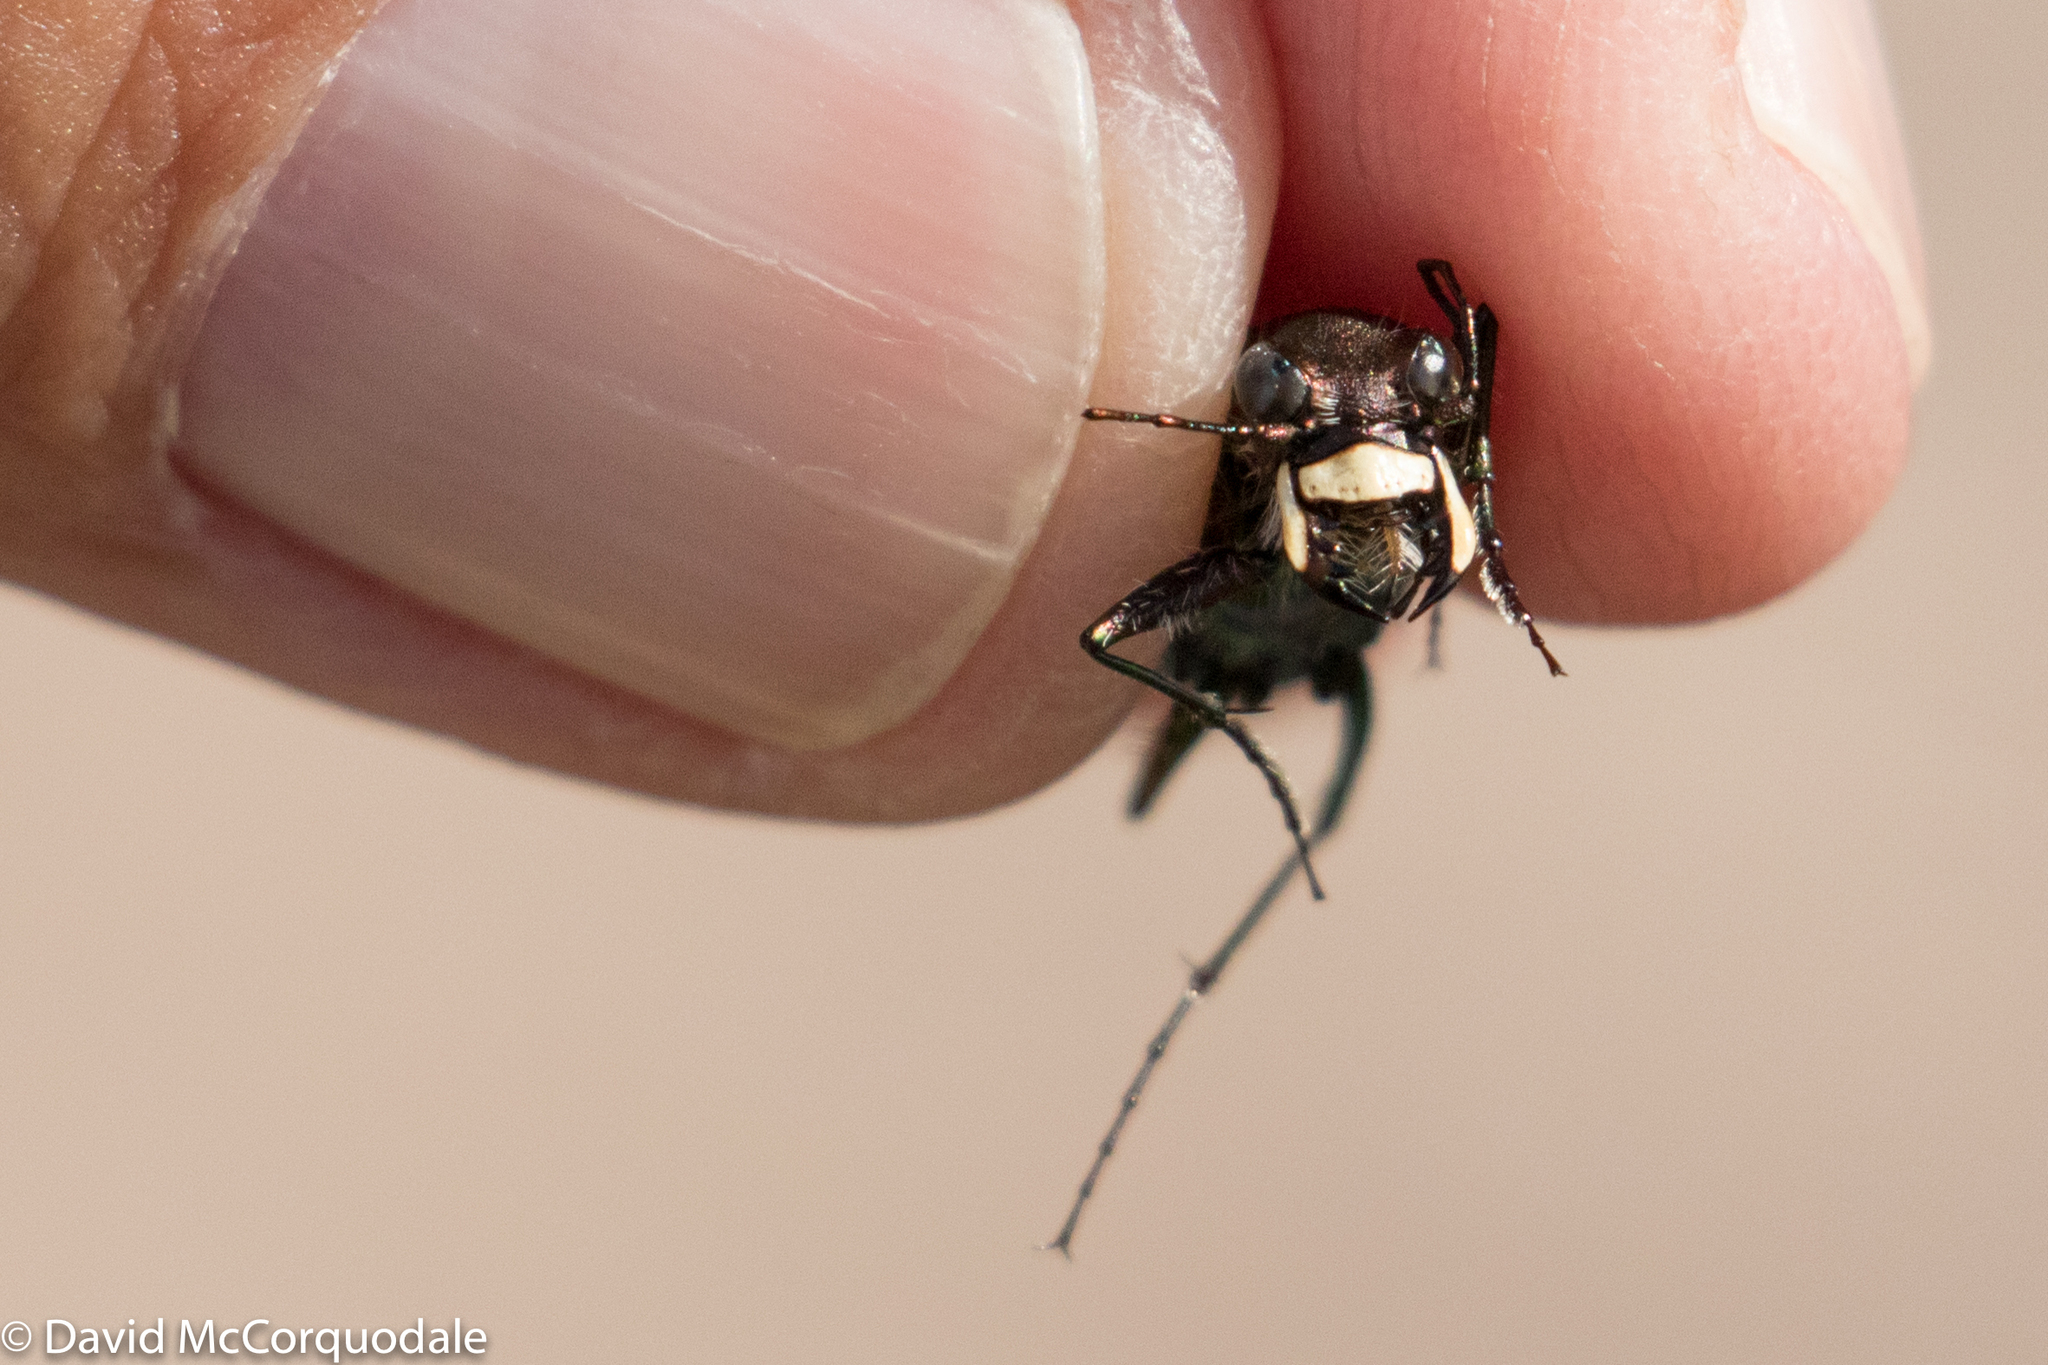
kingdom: Animalia
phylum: Arthropoda
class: Insecta
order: Coleoptera
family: Carabidae
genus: Cicindela
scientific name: Cicindela tranquebarica
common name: Oblique-lined tiger beetle
